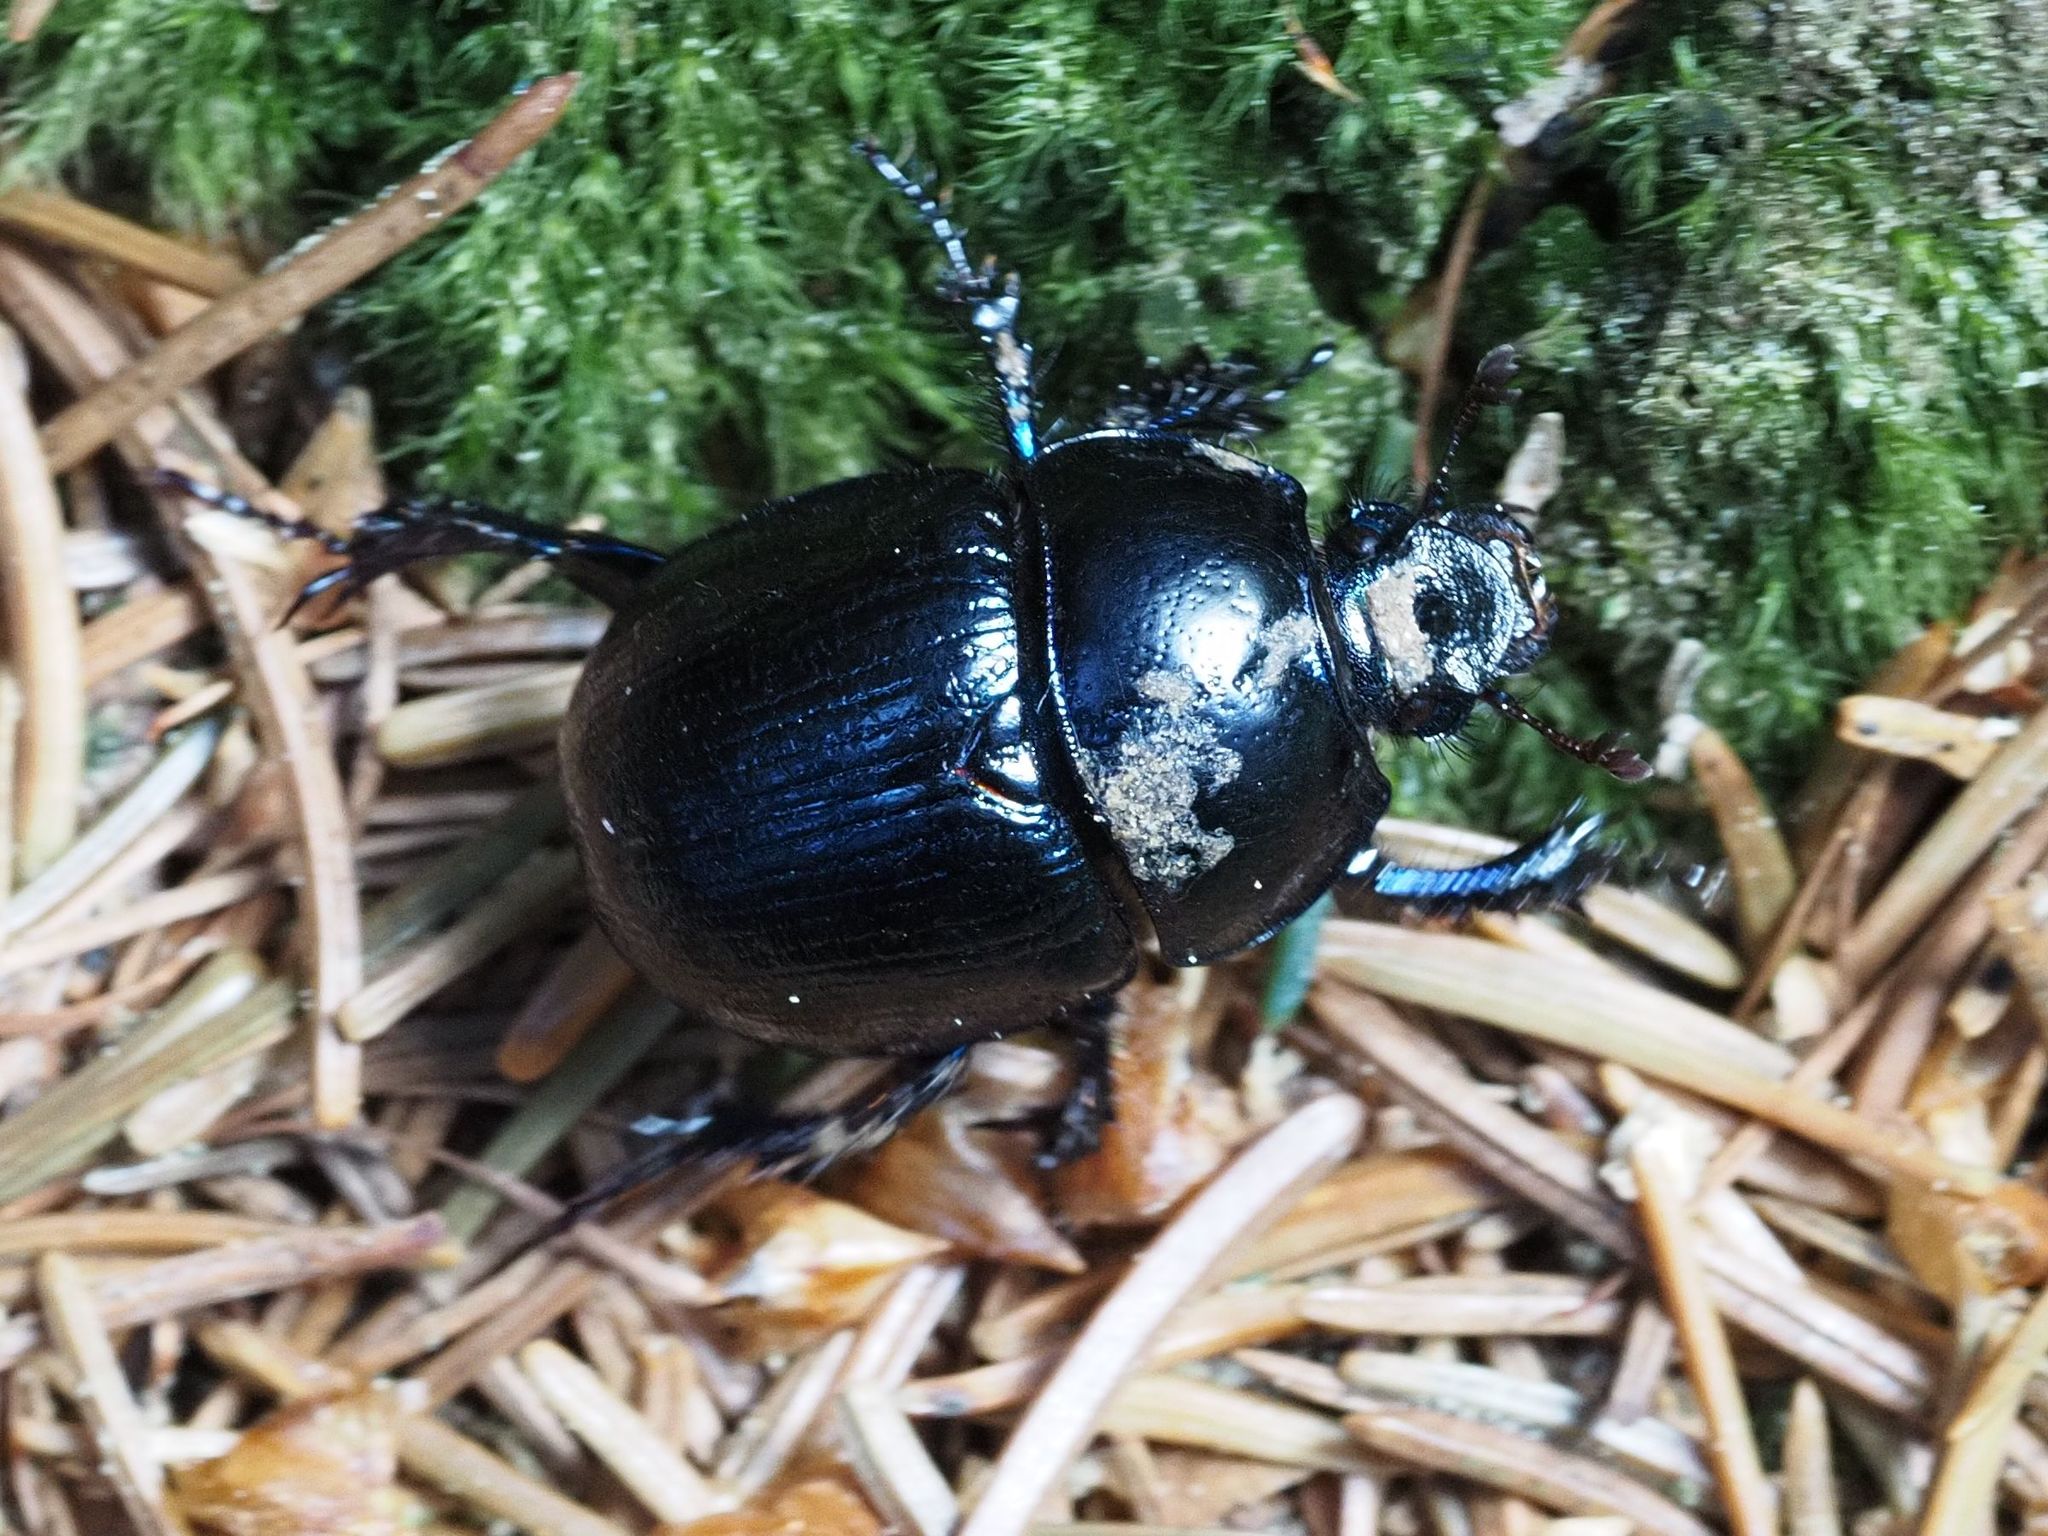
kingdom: Animalia
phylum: Arthropoda
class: Insecta
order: Coleoptera
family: Geotrupidae
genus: Anoplotrupes
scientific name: Anoplotrupes stercorosus
